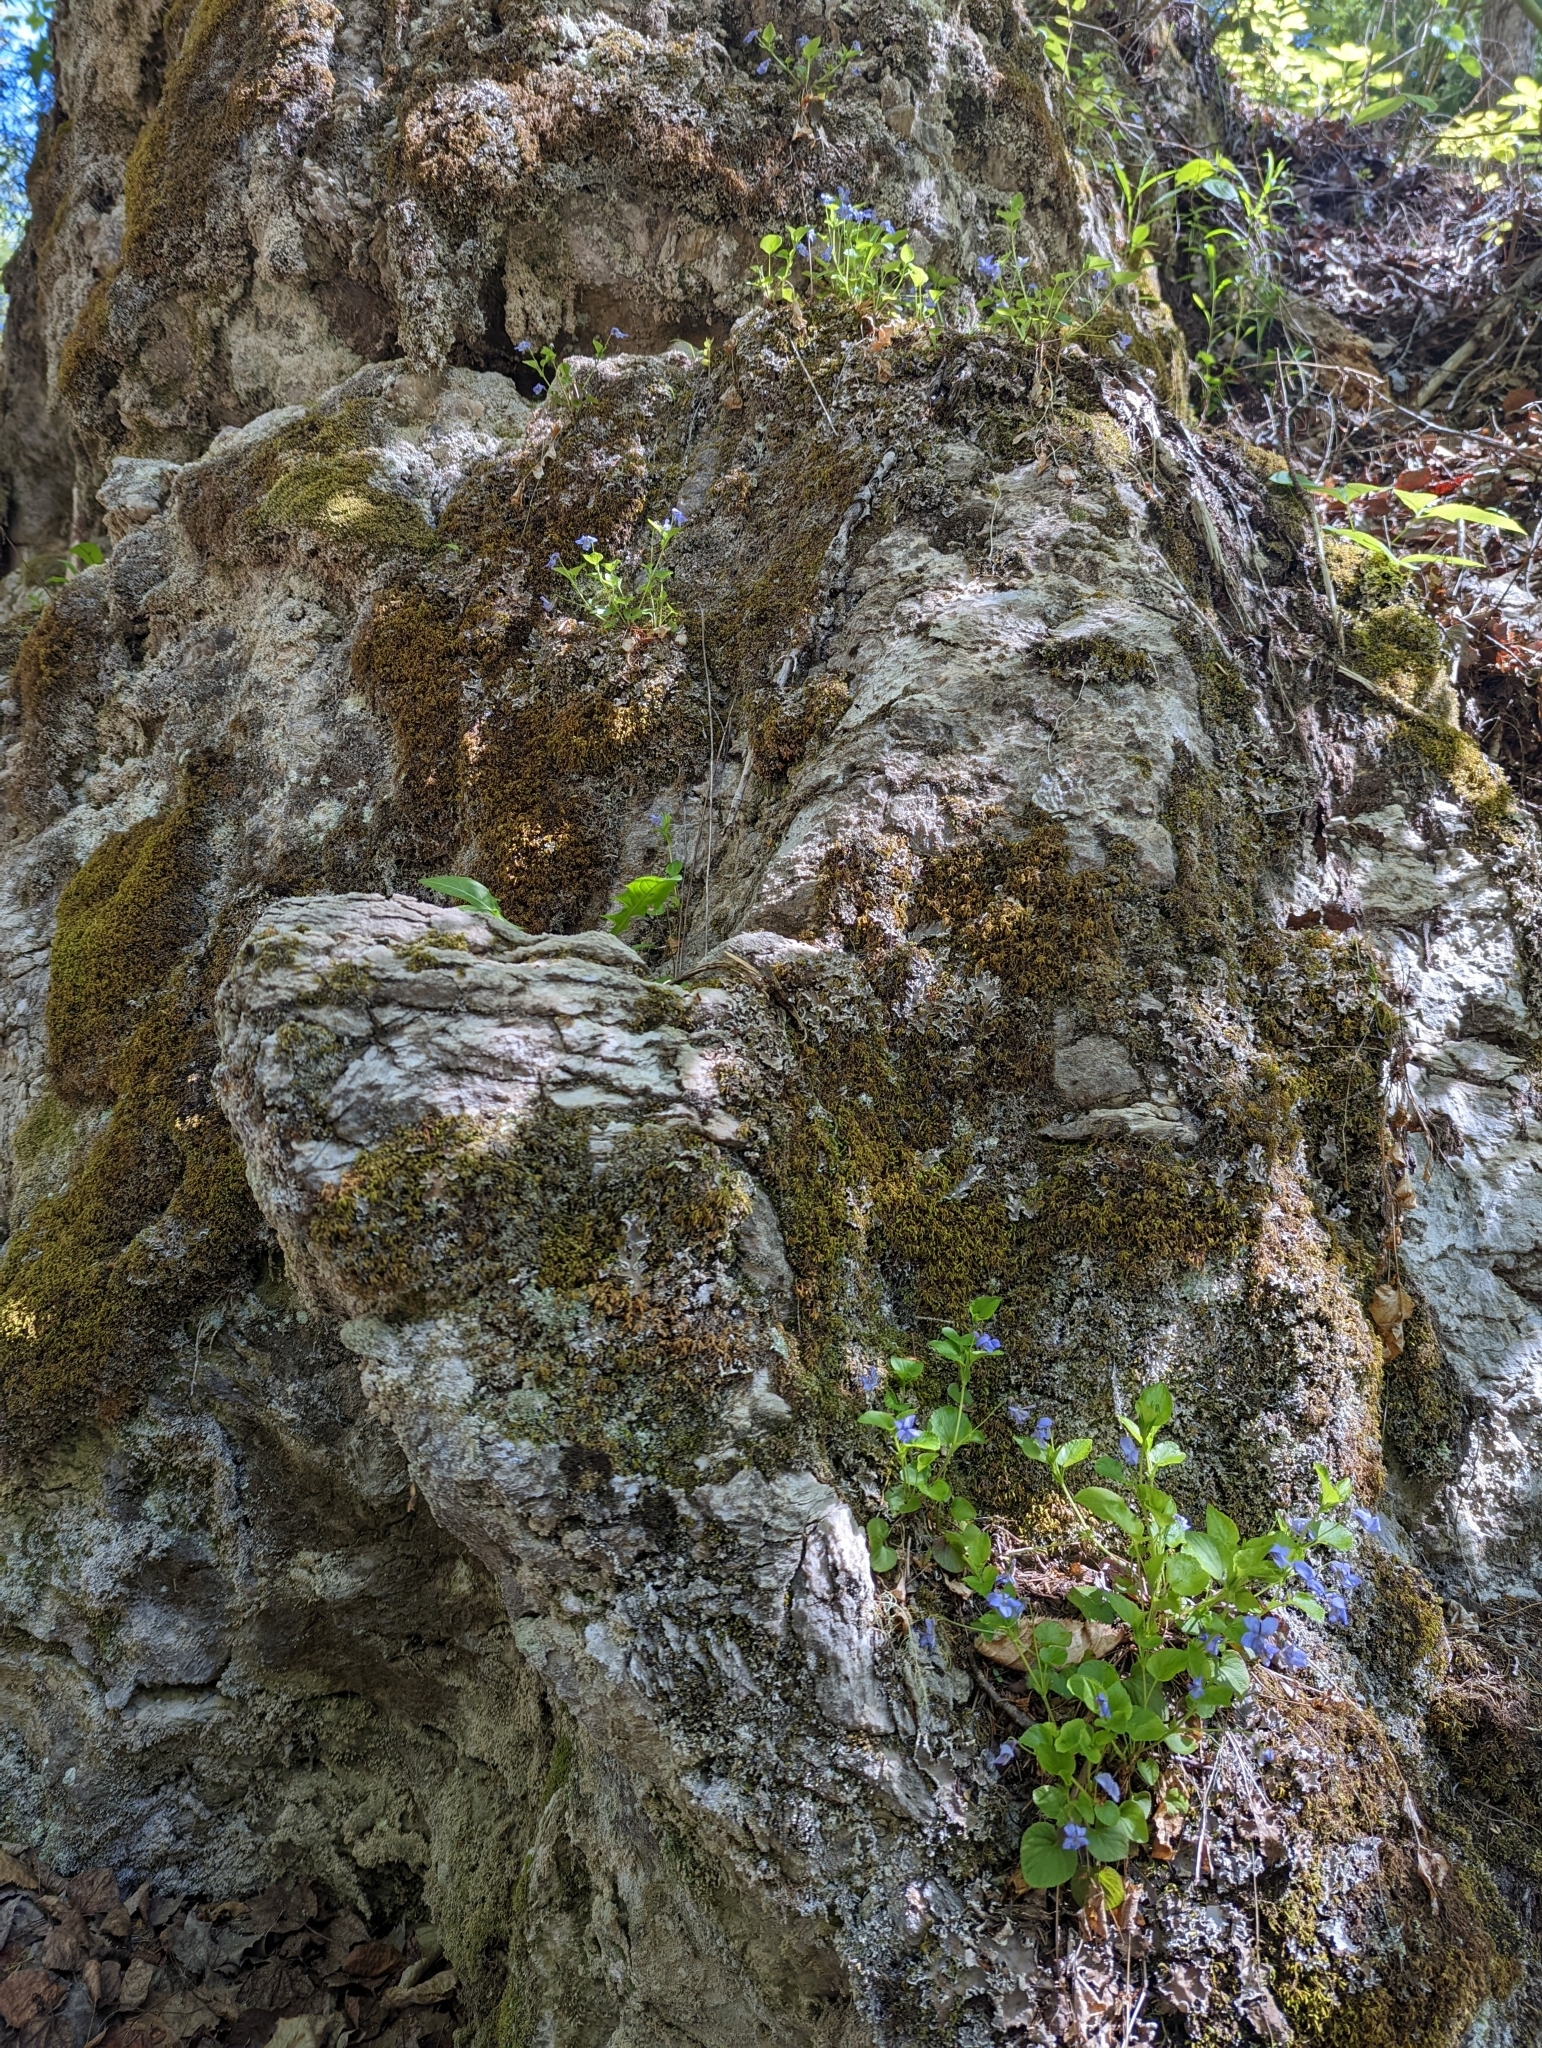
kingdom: Plantae
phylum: Tracheophyta
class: Magnoliopsida
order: Malpighiales
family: Violaceae
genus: Viola
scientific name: Viola labradorica
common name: Labrador violet
